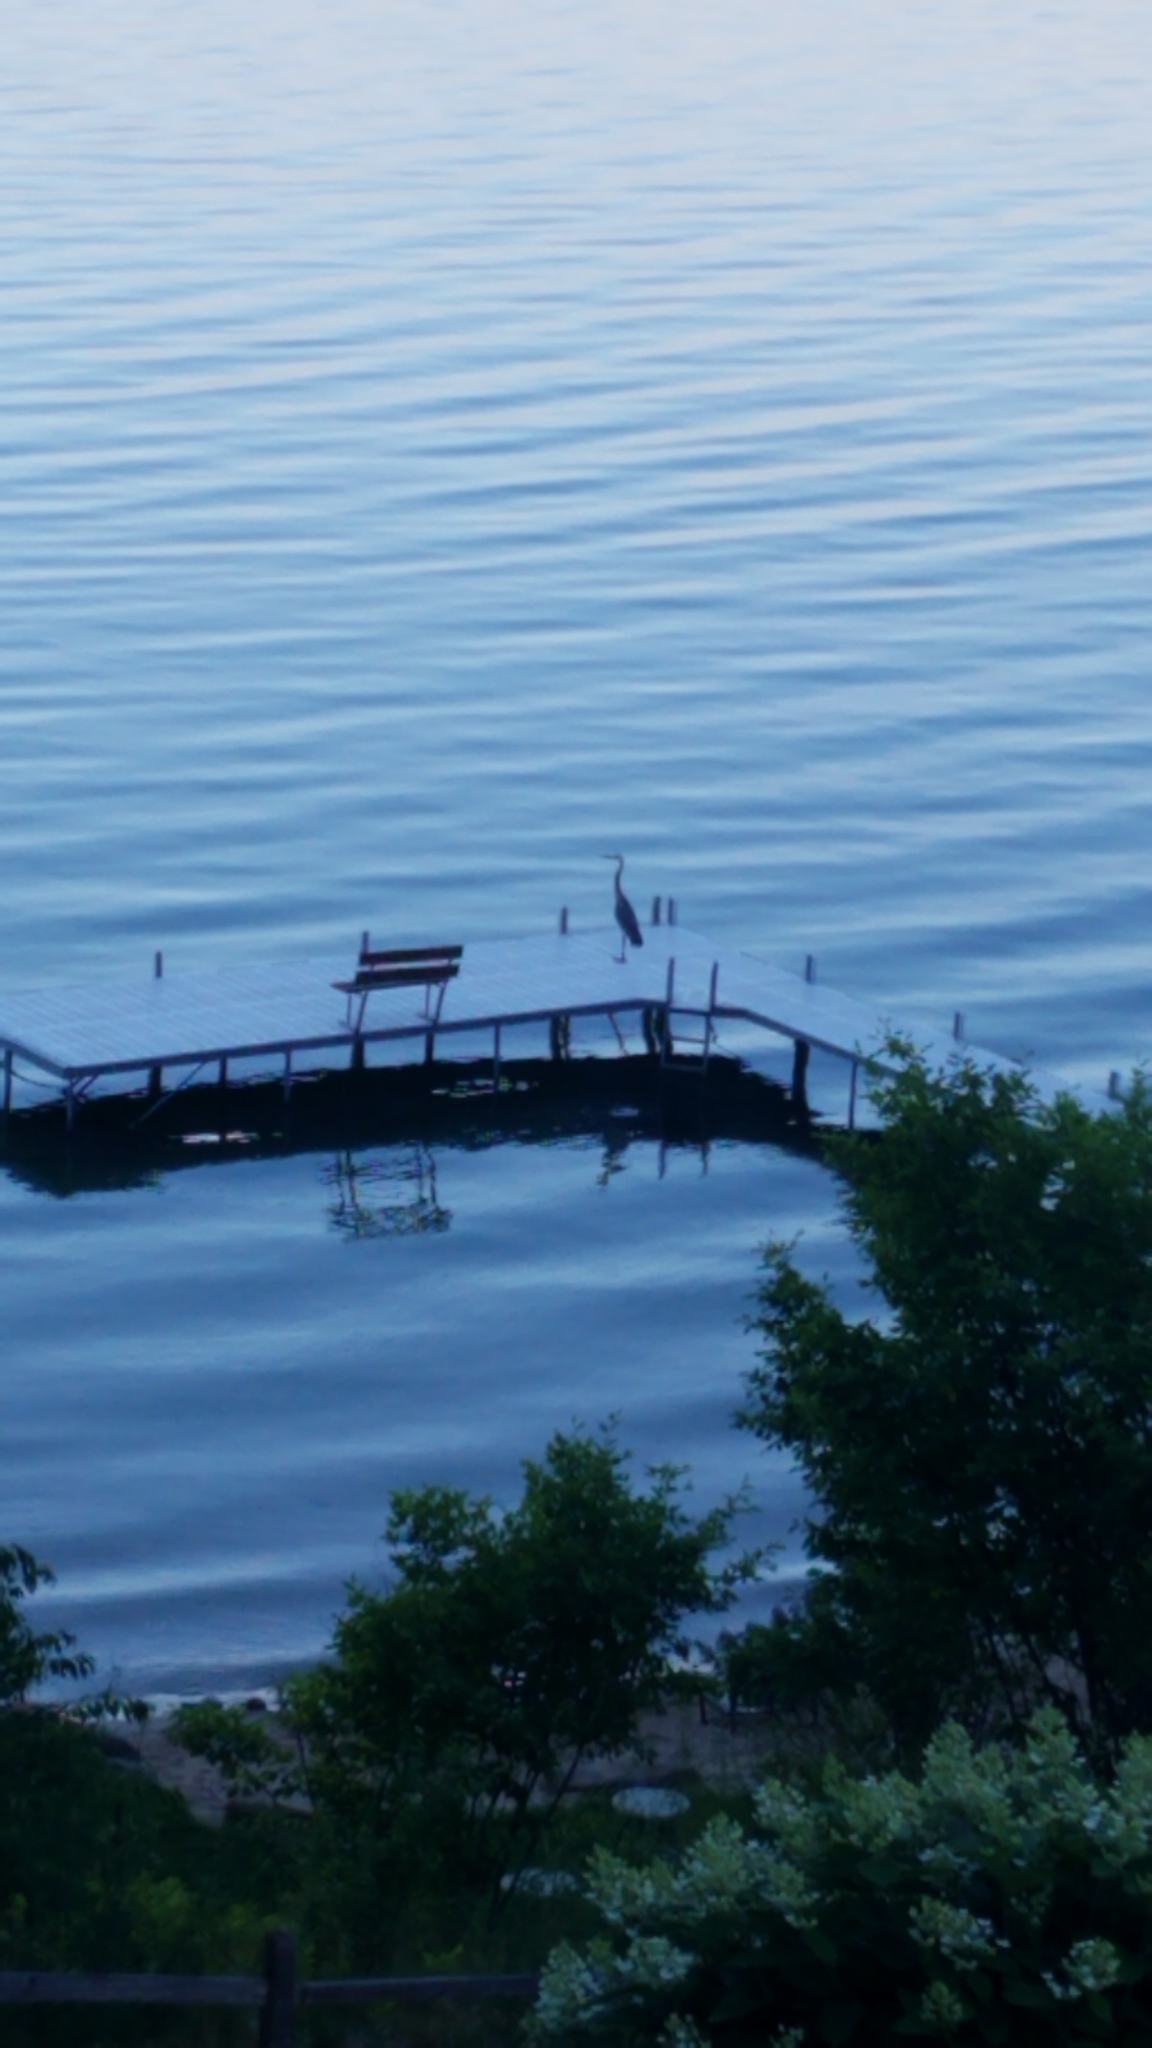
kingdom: Animalia
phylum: Chordata
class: Aves
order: Pelecaniformes
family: Ardeidae
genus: Ardea
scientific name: Ardea herodias
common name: Great blue heron
